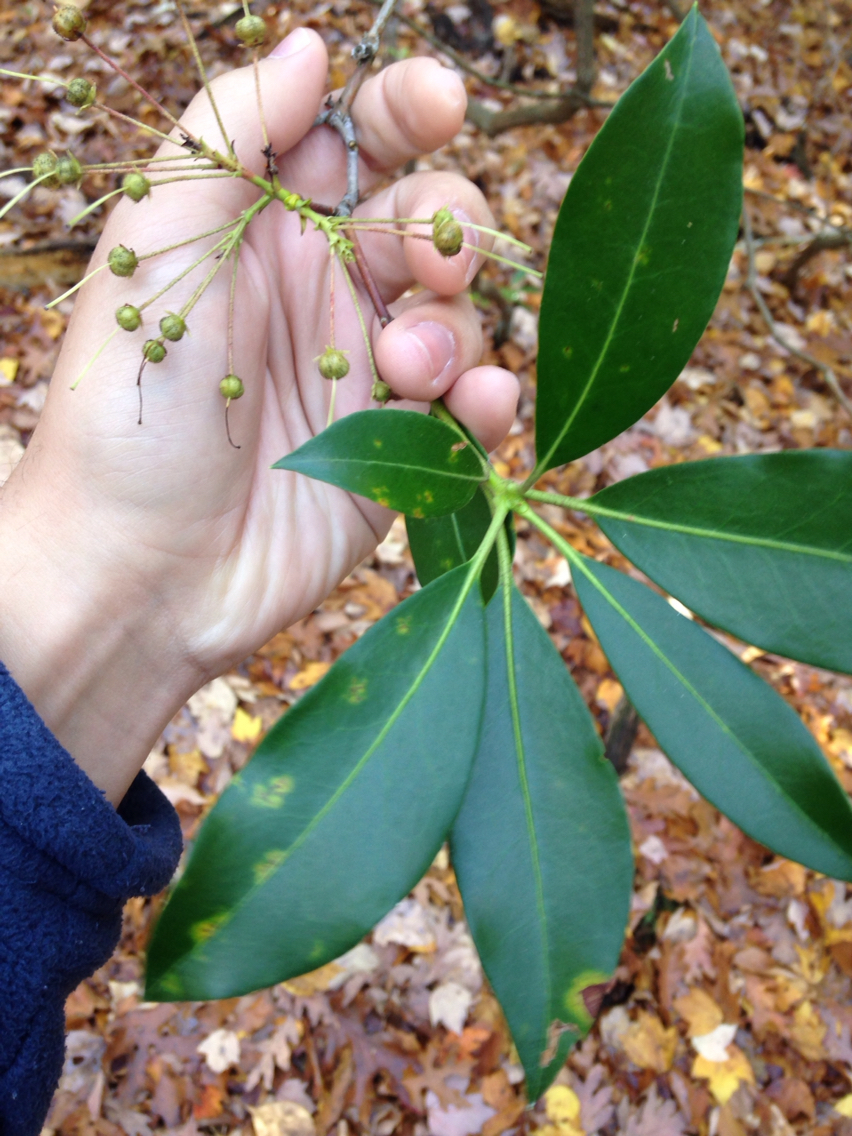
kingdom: Plantae
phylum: Tracheophyta
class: Magnoliopsida
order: Ericales
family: Ericaceae
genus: Kalmia
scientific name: Kalmia latifolia
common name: Mountain-laurel
